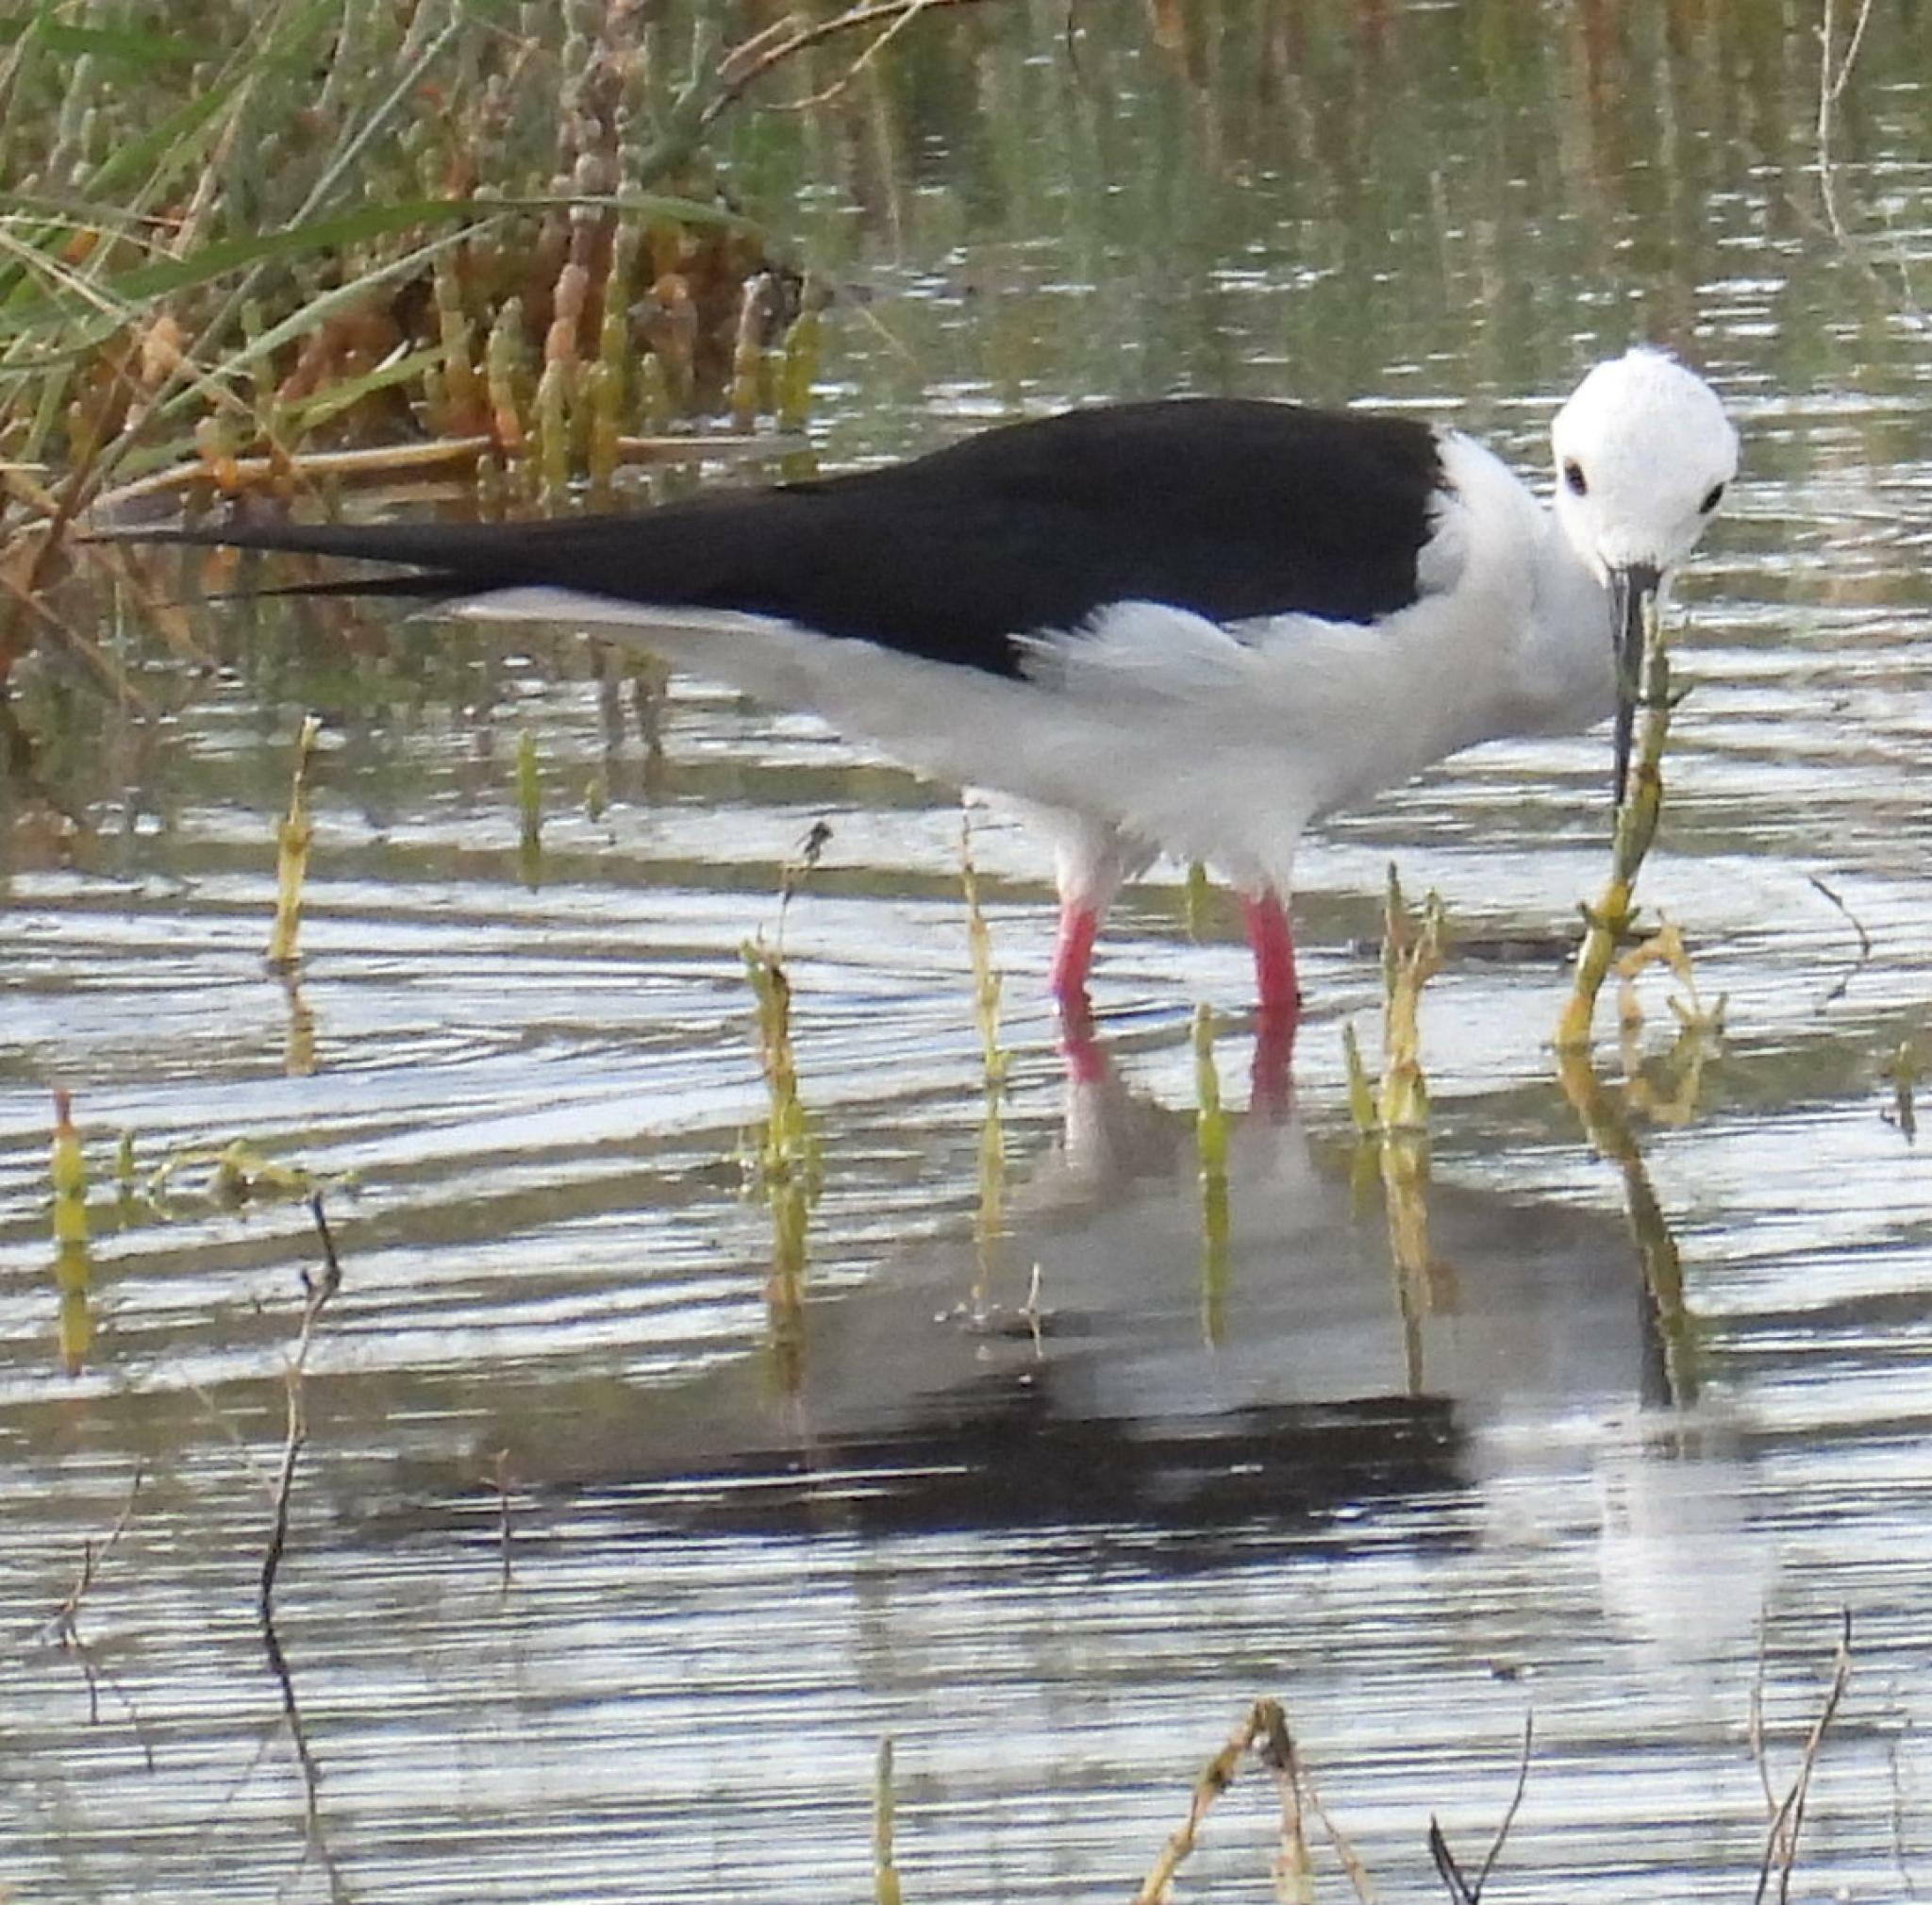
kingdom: Animalia
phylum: Chordata
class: Aves
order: Charadriiformes
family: Recurvirostridae
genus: Himantopus
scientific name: Himantopus himantopus
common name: Black-winged stilt
